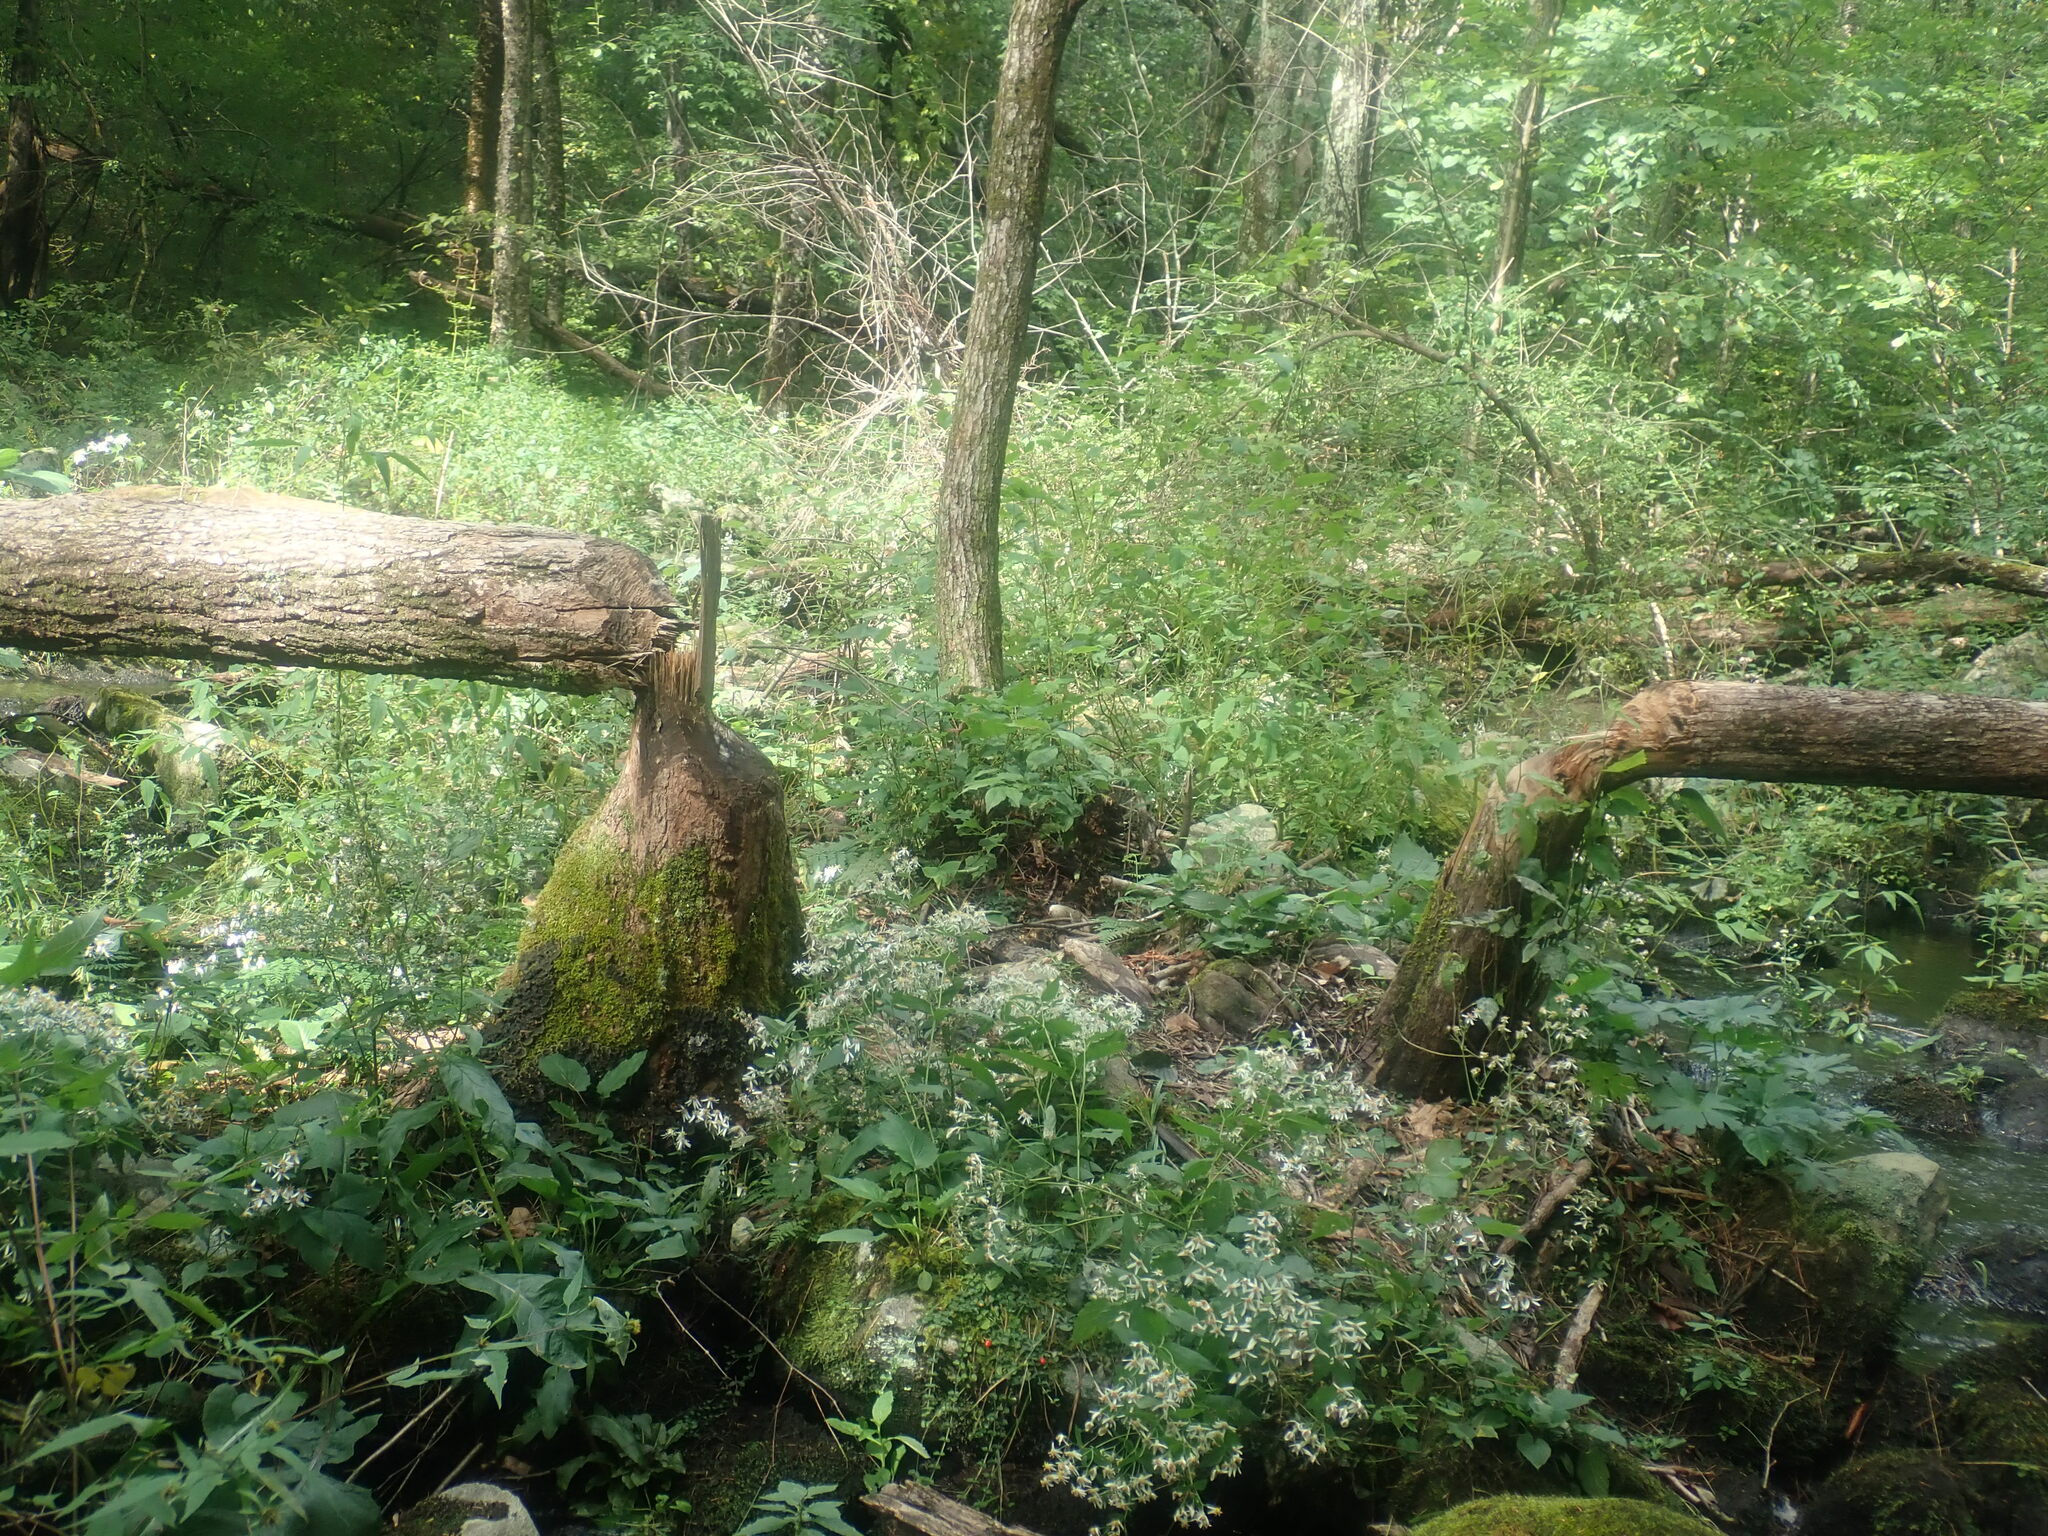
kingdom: Animalia
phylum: Chordata
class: Mammalia
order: Rodentia
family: Castoridae
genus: Castor
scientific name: Castor canadensis
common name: American beaver
